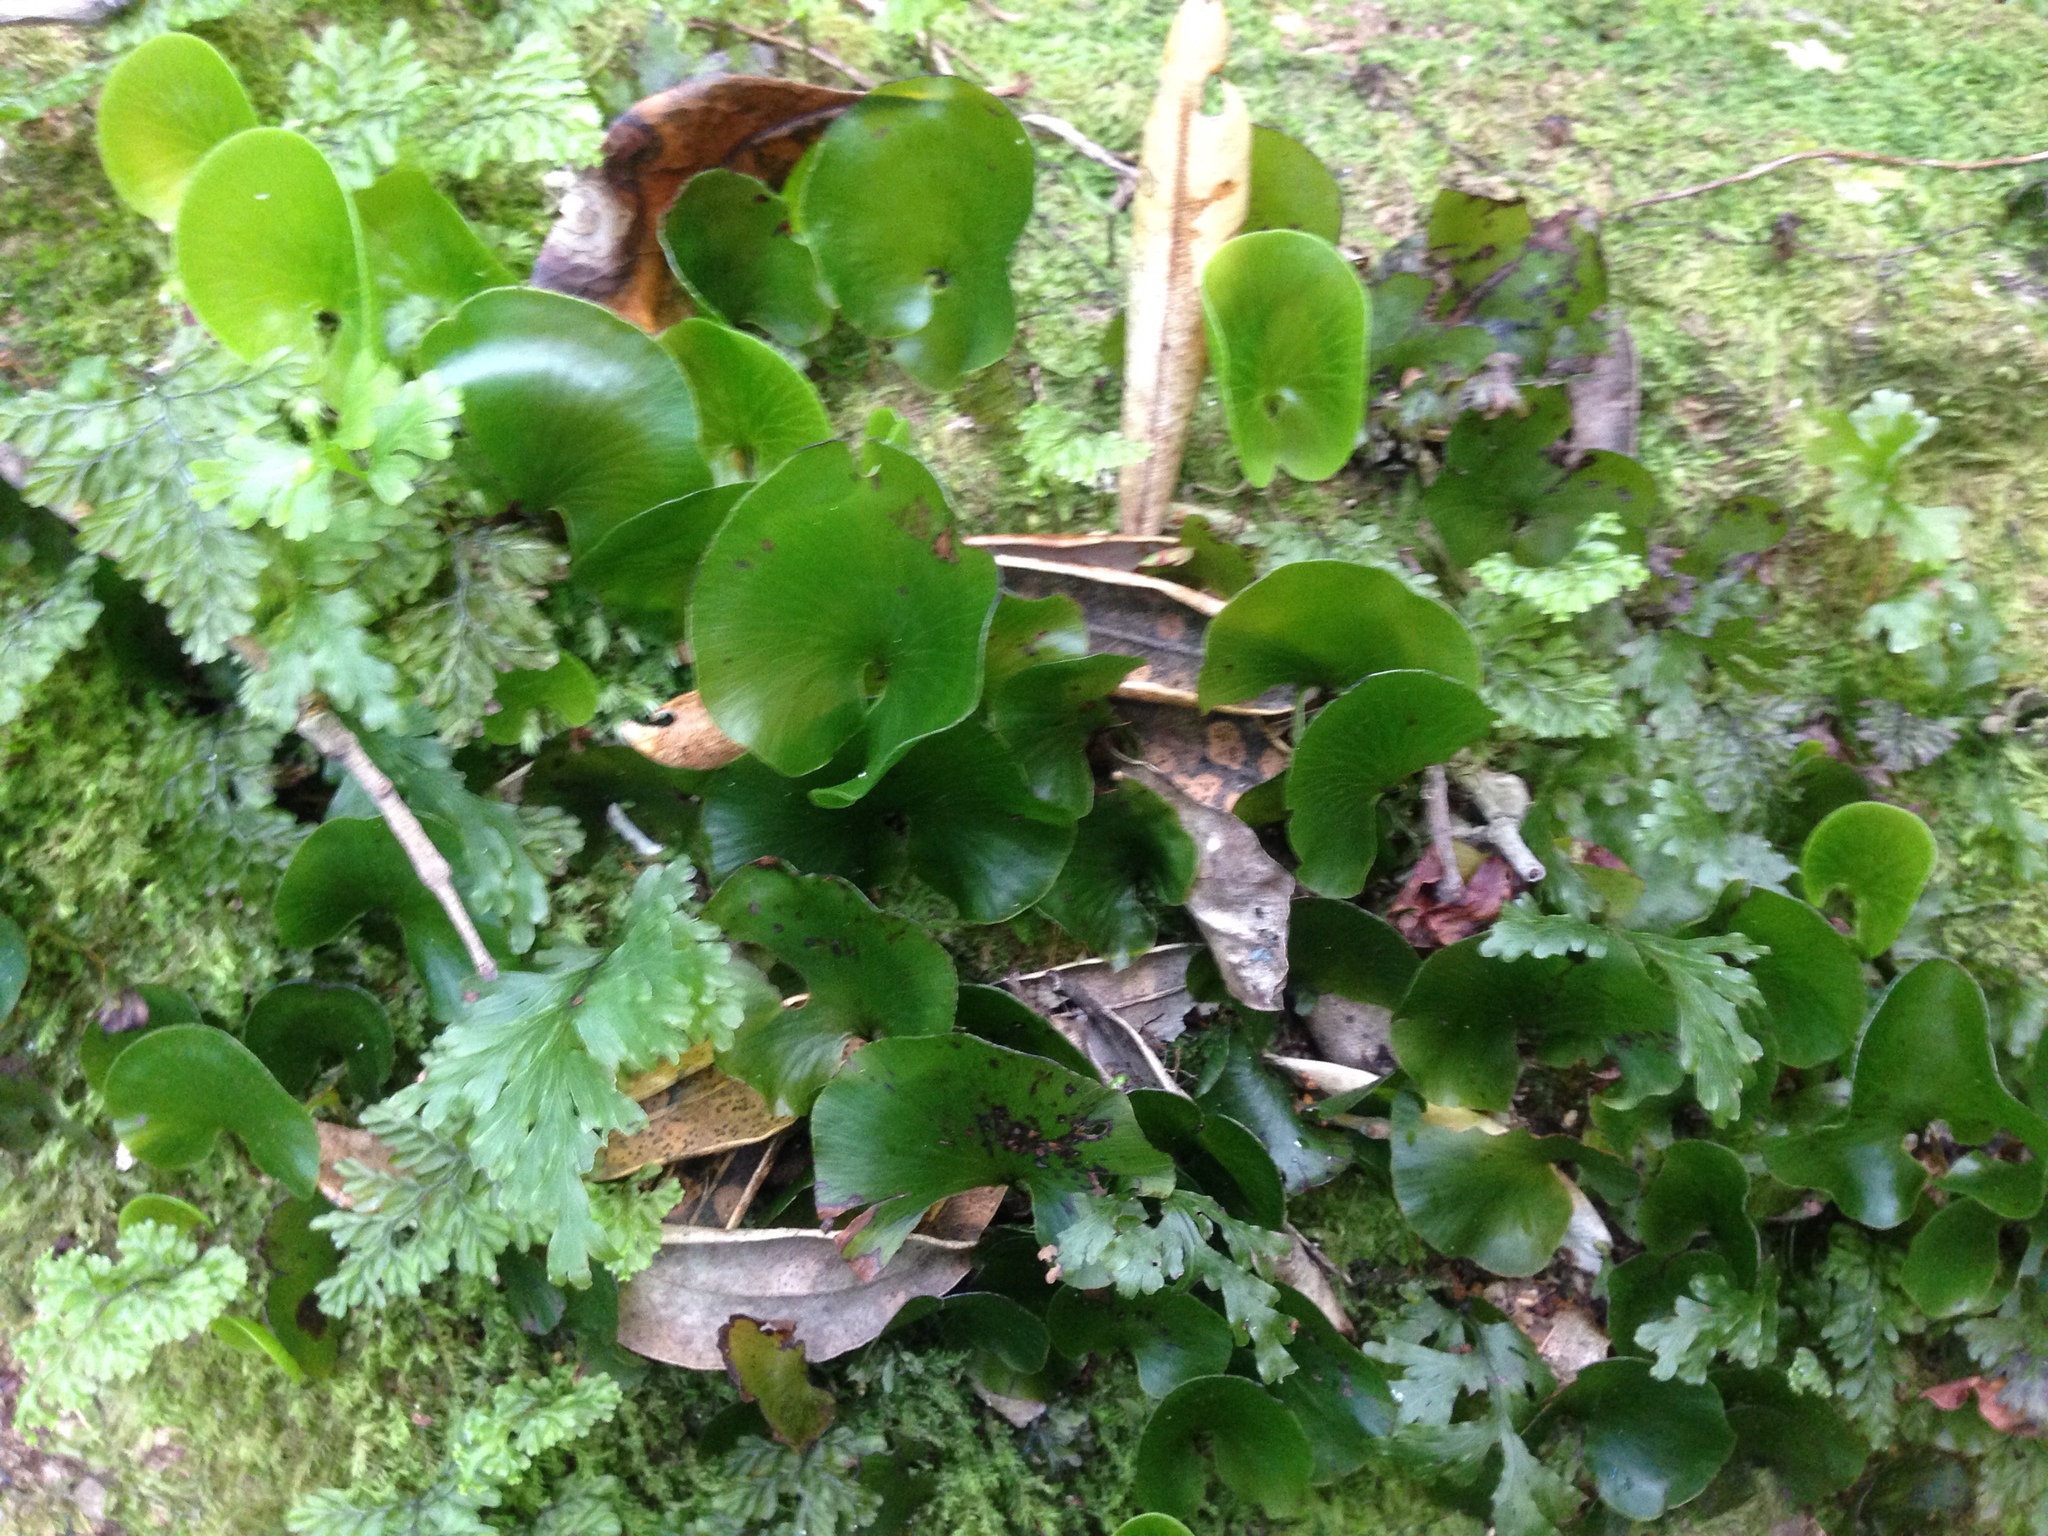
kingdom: Plantae
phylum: Tracheophyta
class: Polypodiopsida
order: Hymenophyllales
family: Hymenophyllaceae
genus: Hymenophyllum
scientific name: Hymenophyllum nephrophyllum
